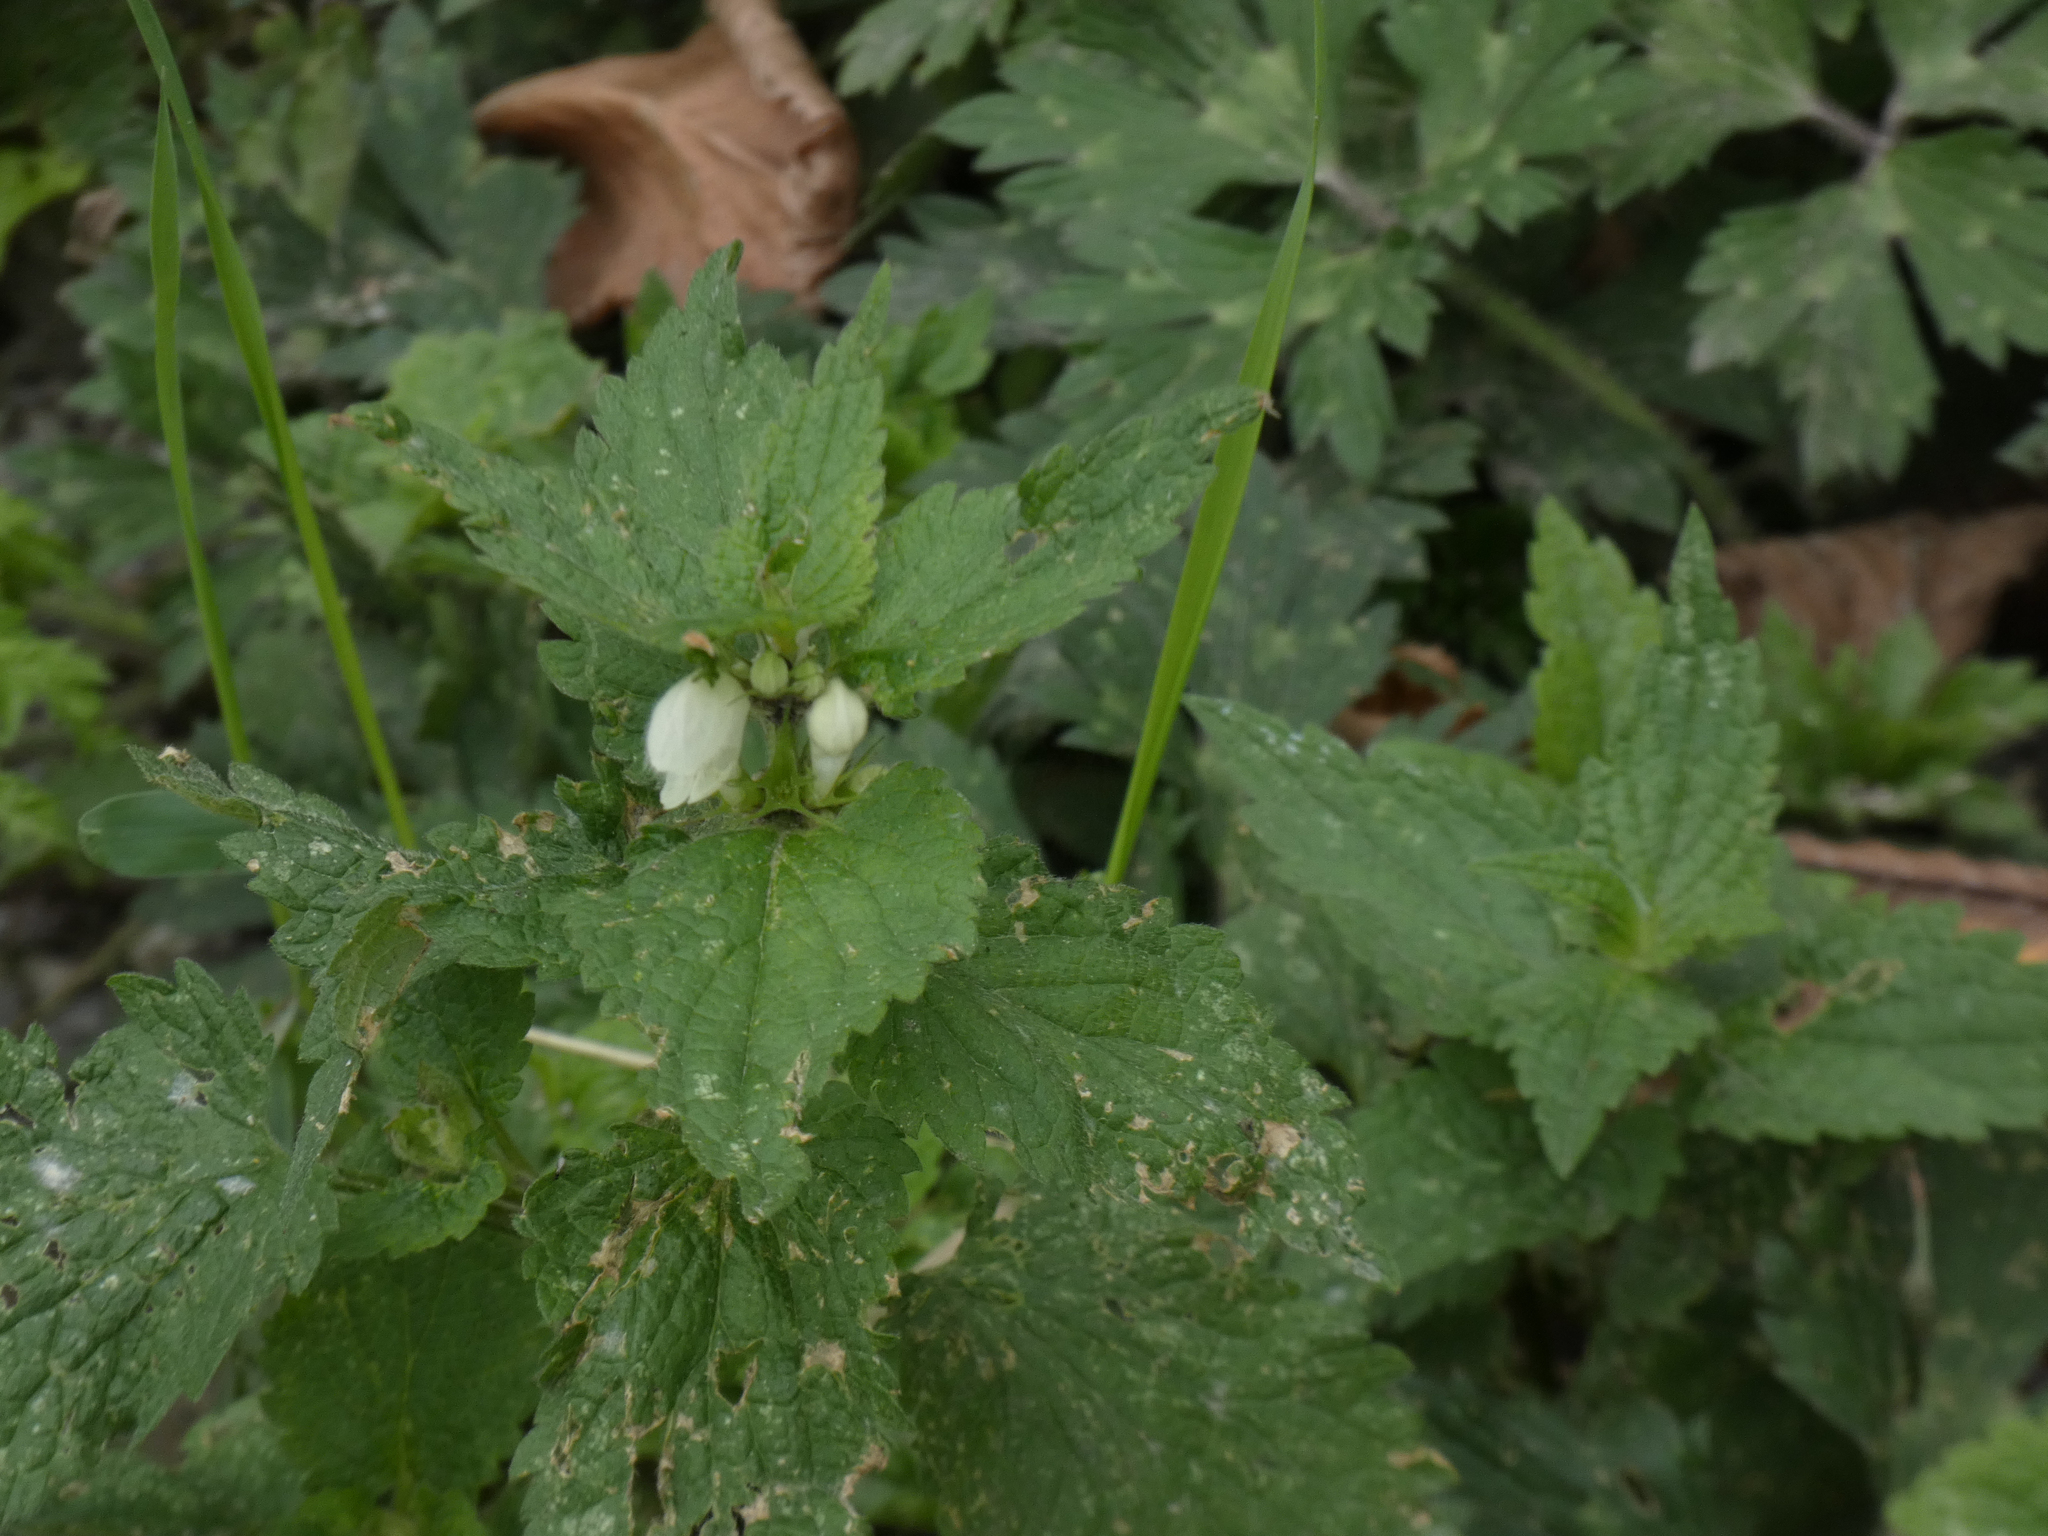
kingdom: Plantae
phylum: Tracheophyta
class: Magnoliopsida
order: Lamiales
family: Lamiaceae
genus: Lamium
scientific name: Lamium album
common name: White dead-nettle
